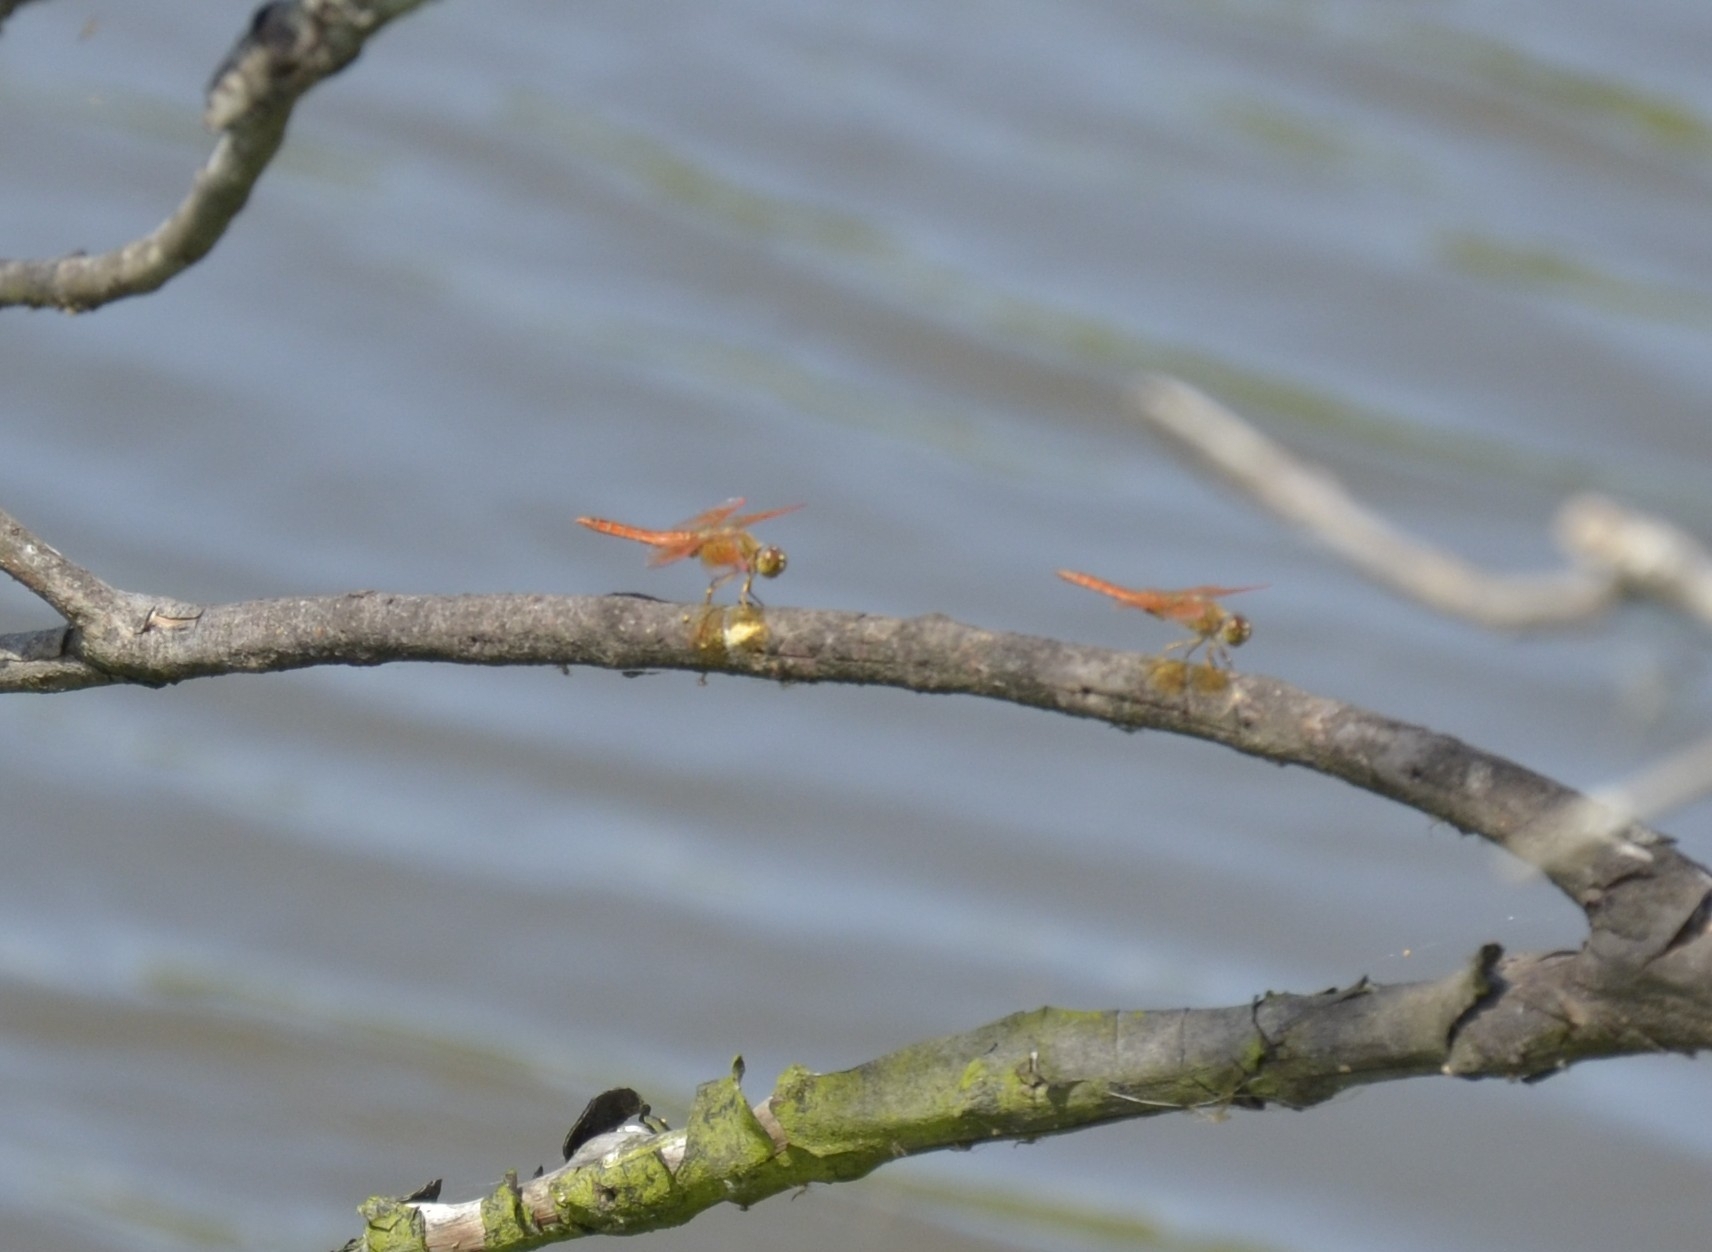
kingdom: Animalia
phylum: Arthropoda
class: Insecta
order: Odonata
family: Libellulidae
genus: Brachythemis
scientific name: Brachythemis contaminata
